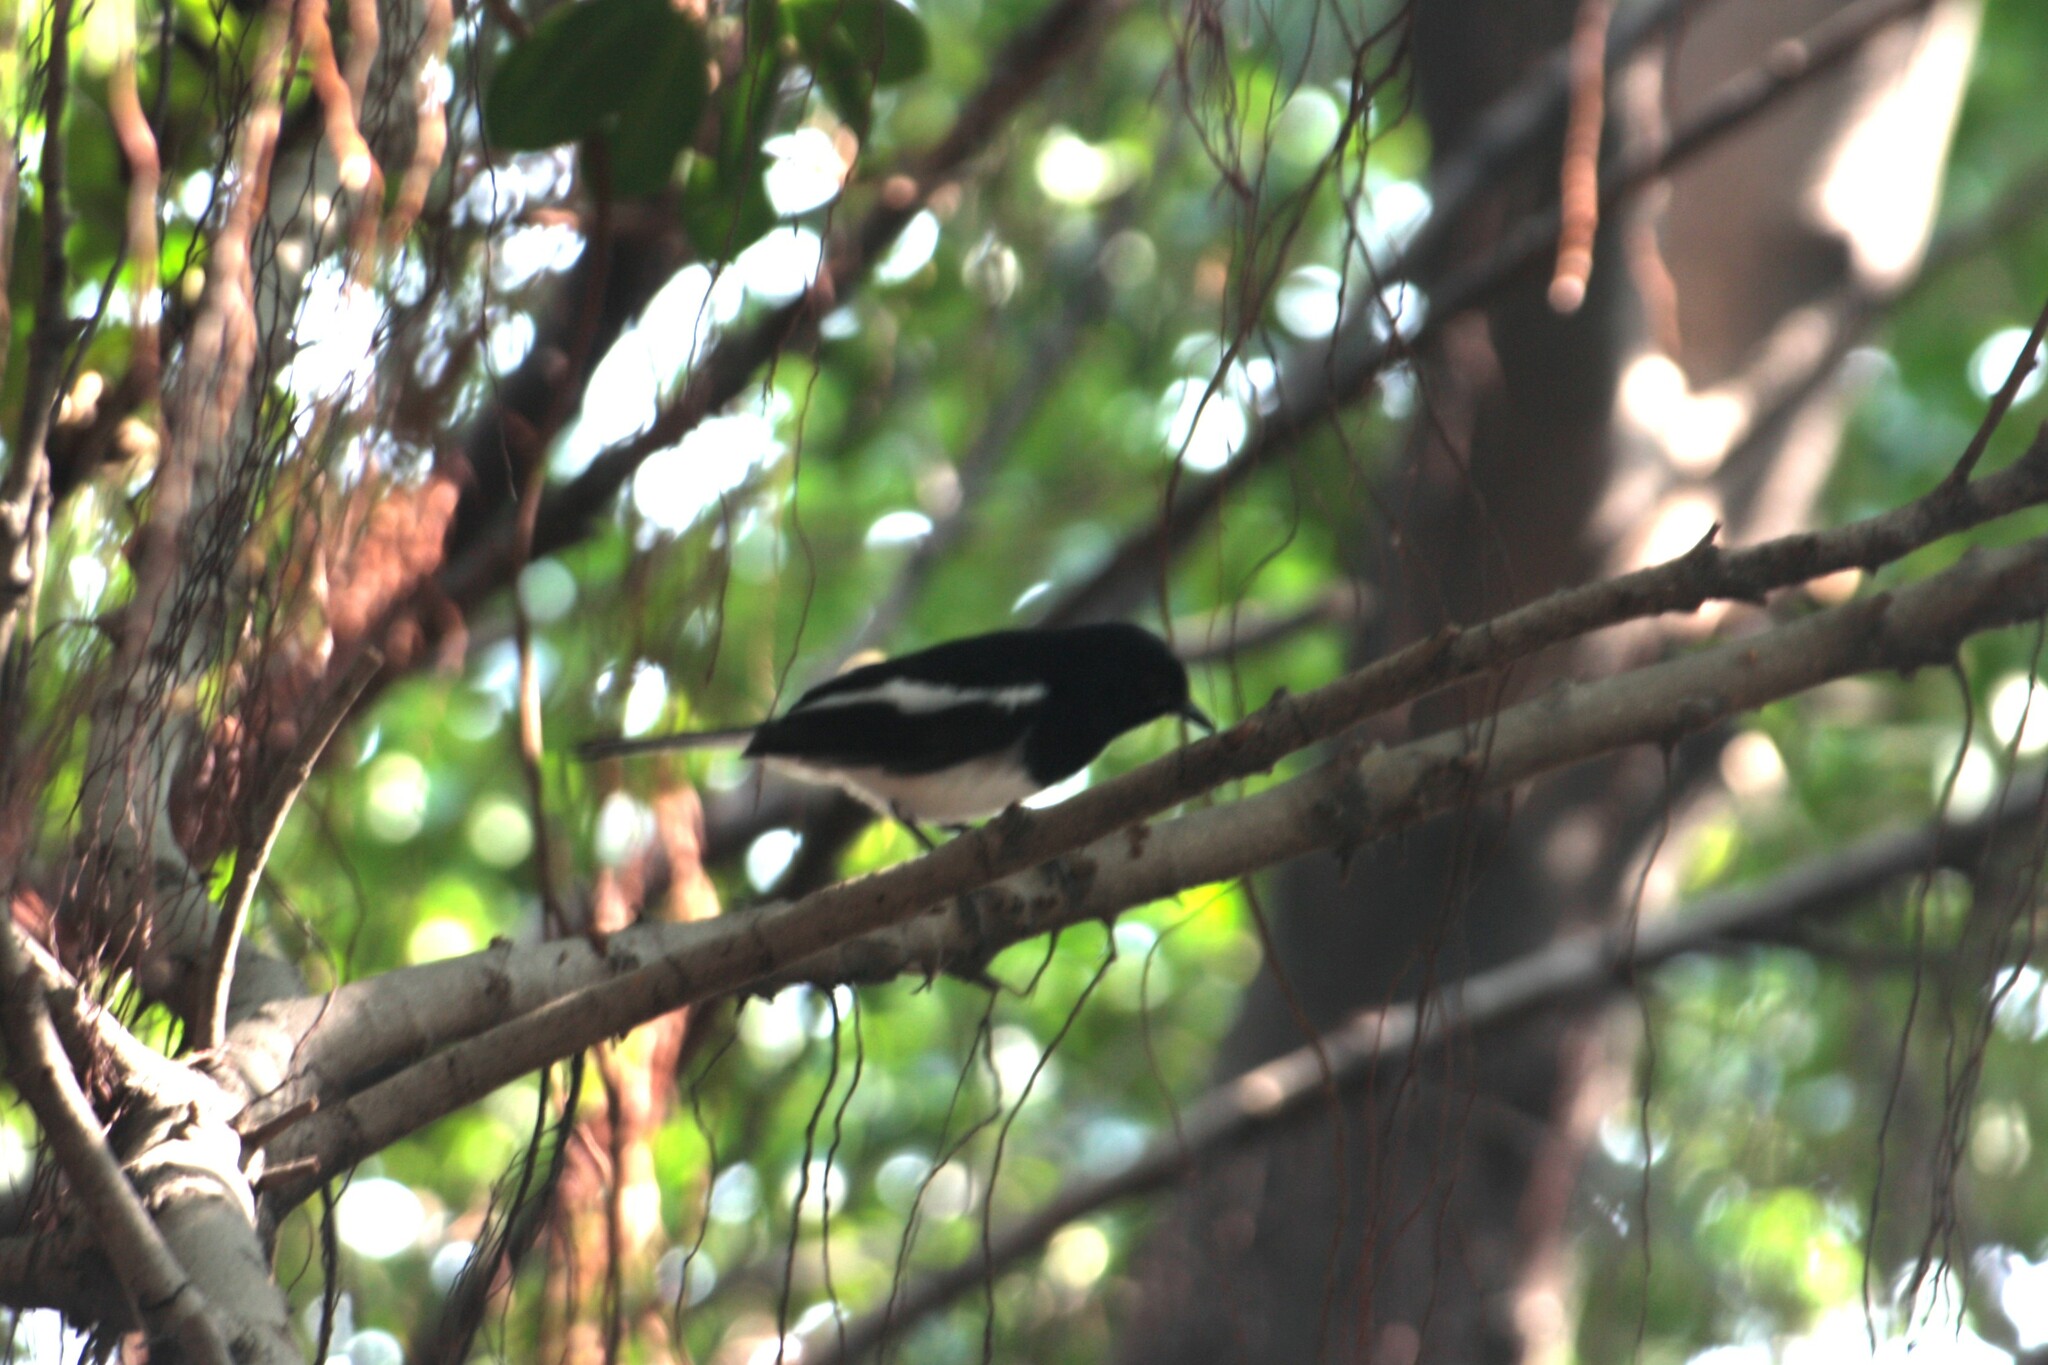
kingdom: Animalia
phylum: Chordata
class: Aves
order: Passeriformes
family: Muscicapidae
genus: Copsychus
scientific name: Copsychus saularis
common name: Oriental magpie-robin
